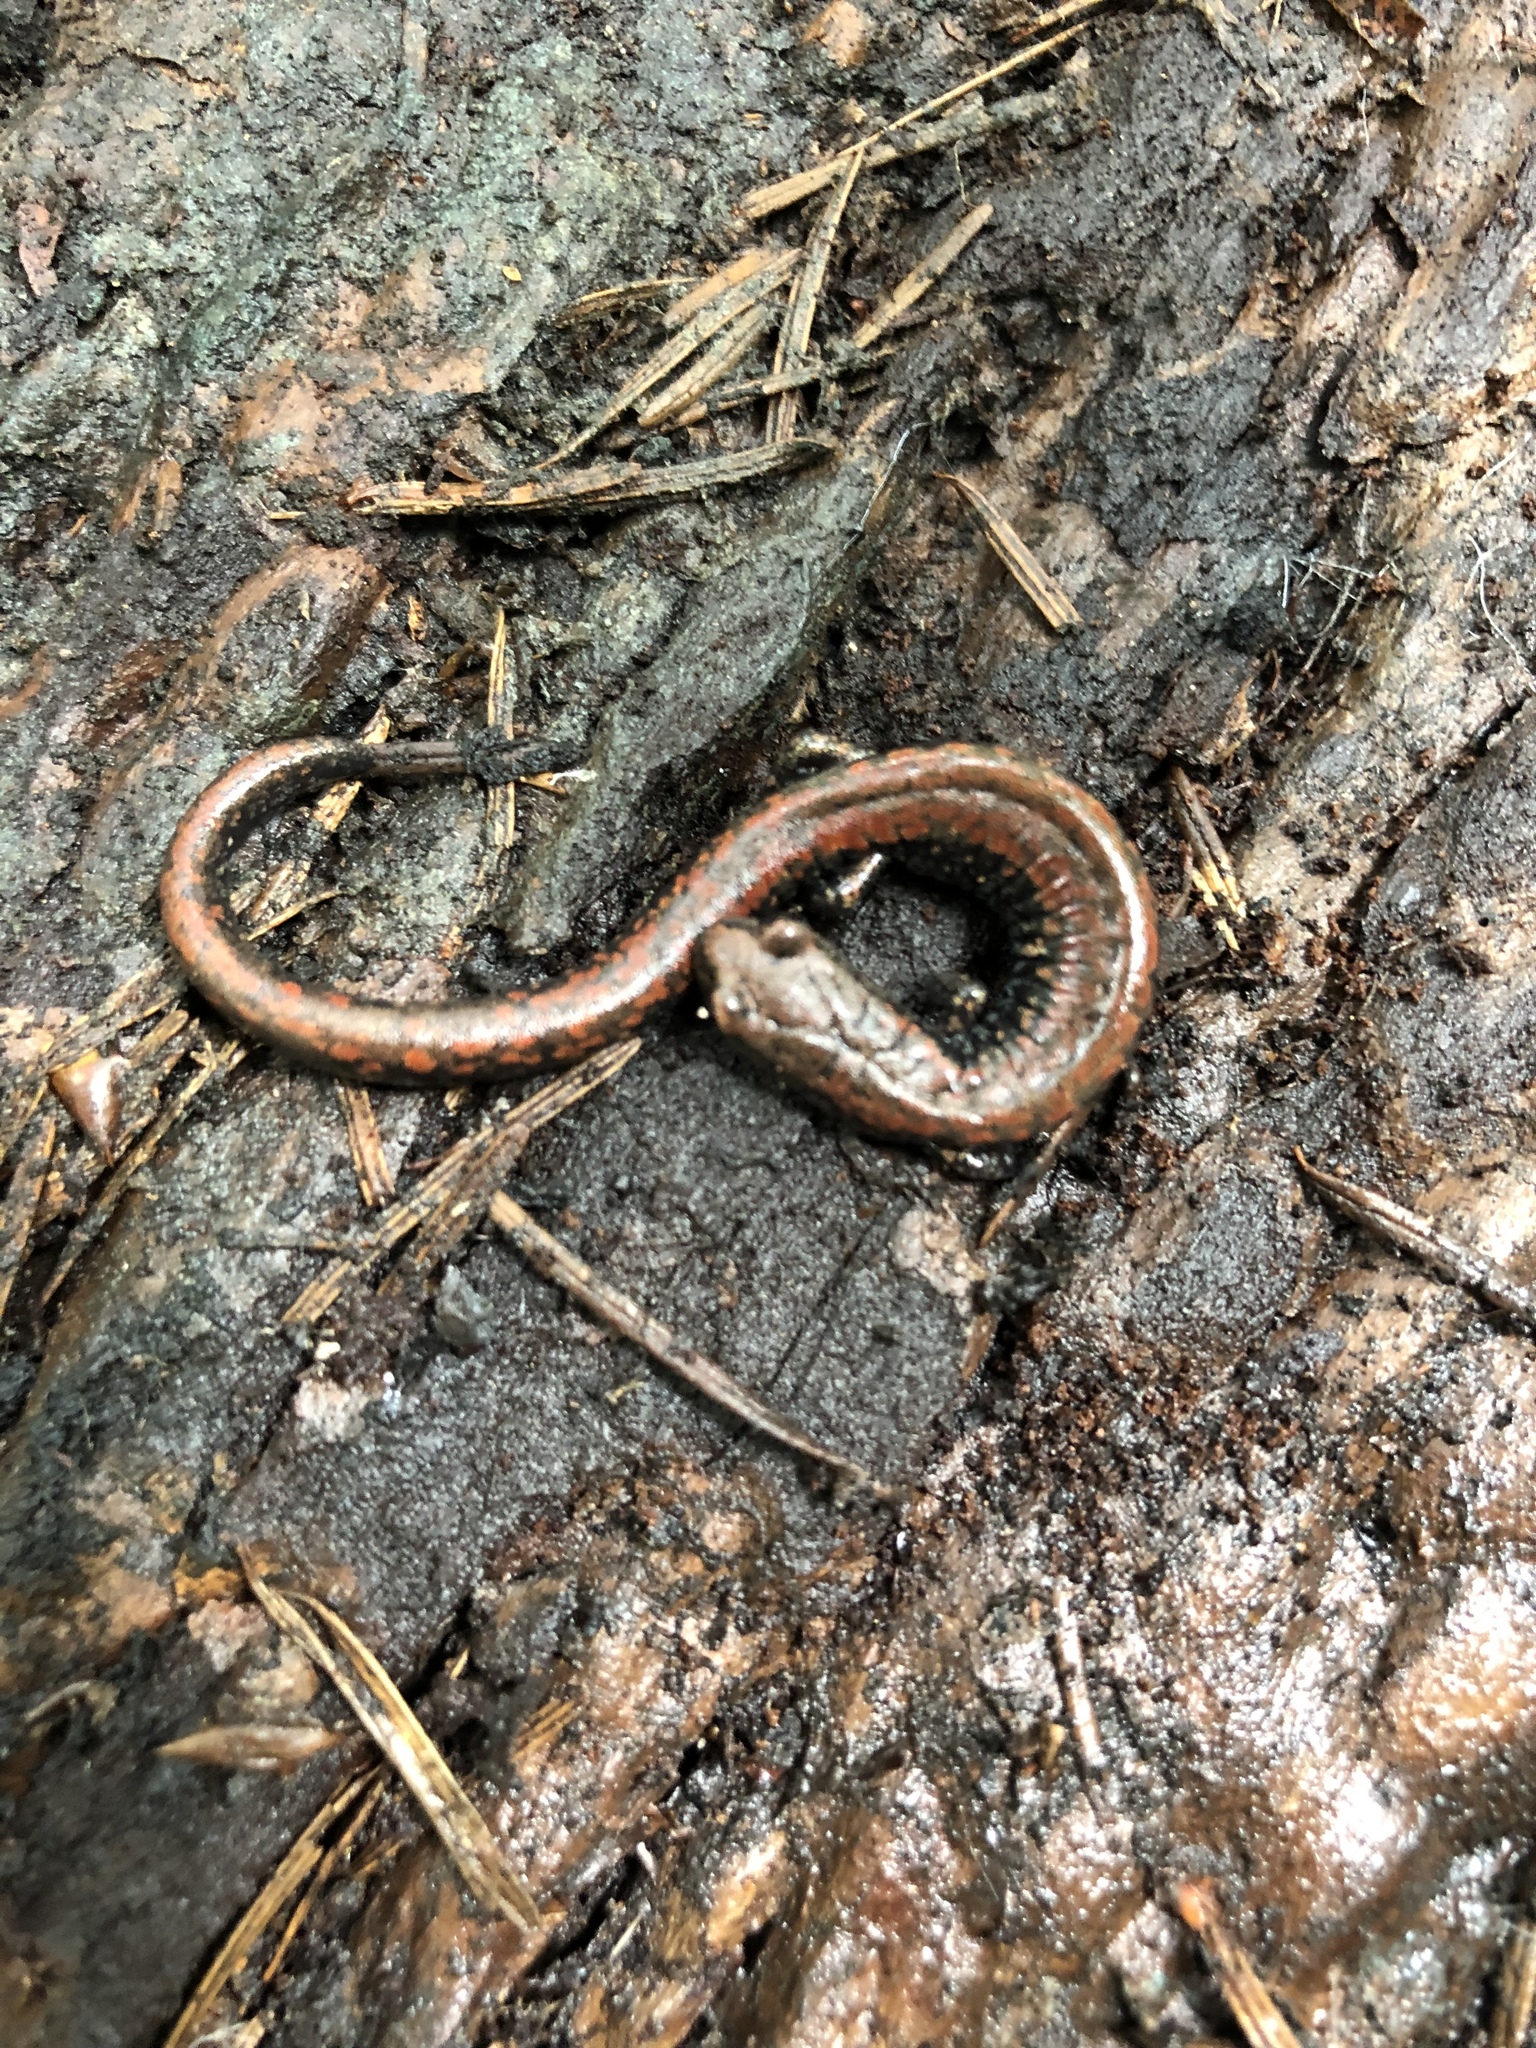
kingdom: Animalia
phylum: Chordata
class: Amphibia
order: Caudata
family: Plethodontidae
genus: Batrachoseps
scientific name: Batrachoseps wrighti
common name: Oregon slender salamander
